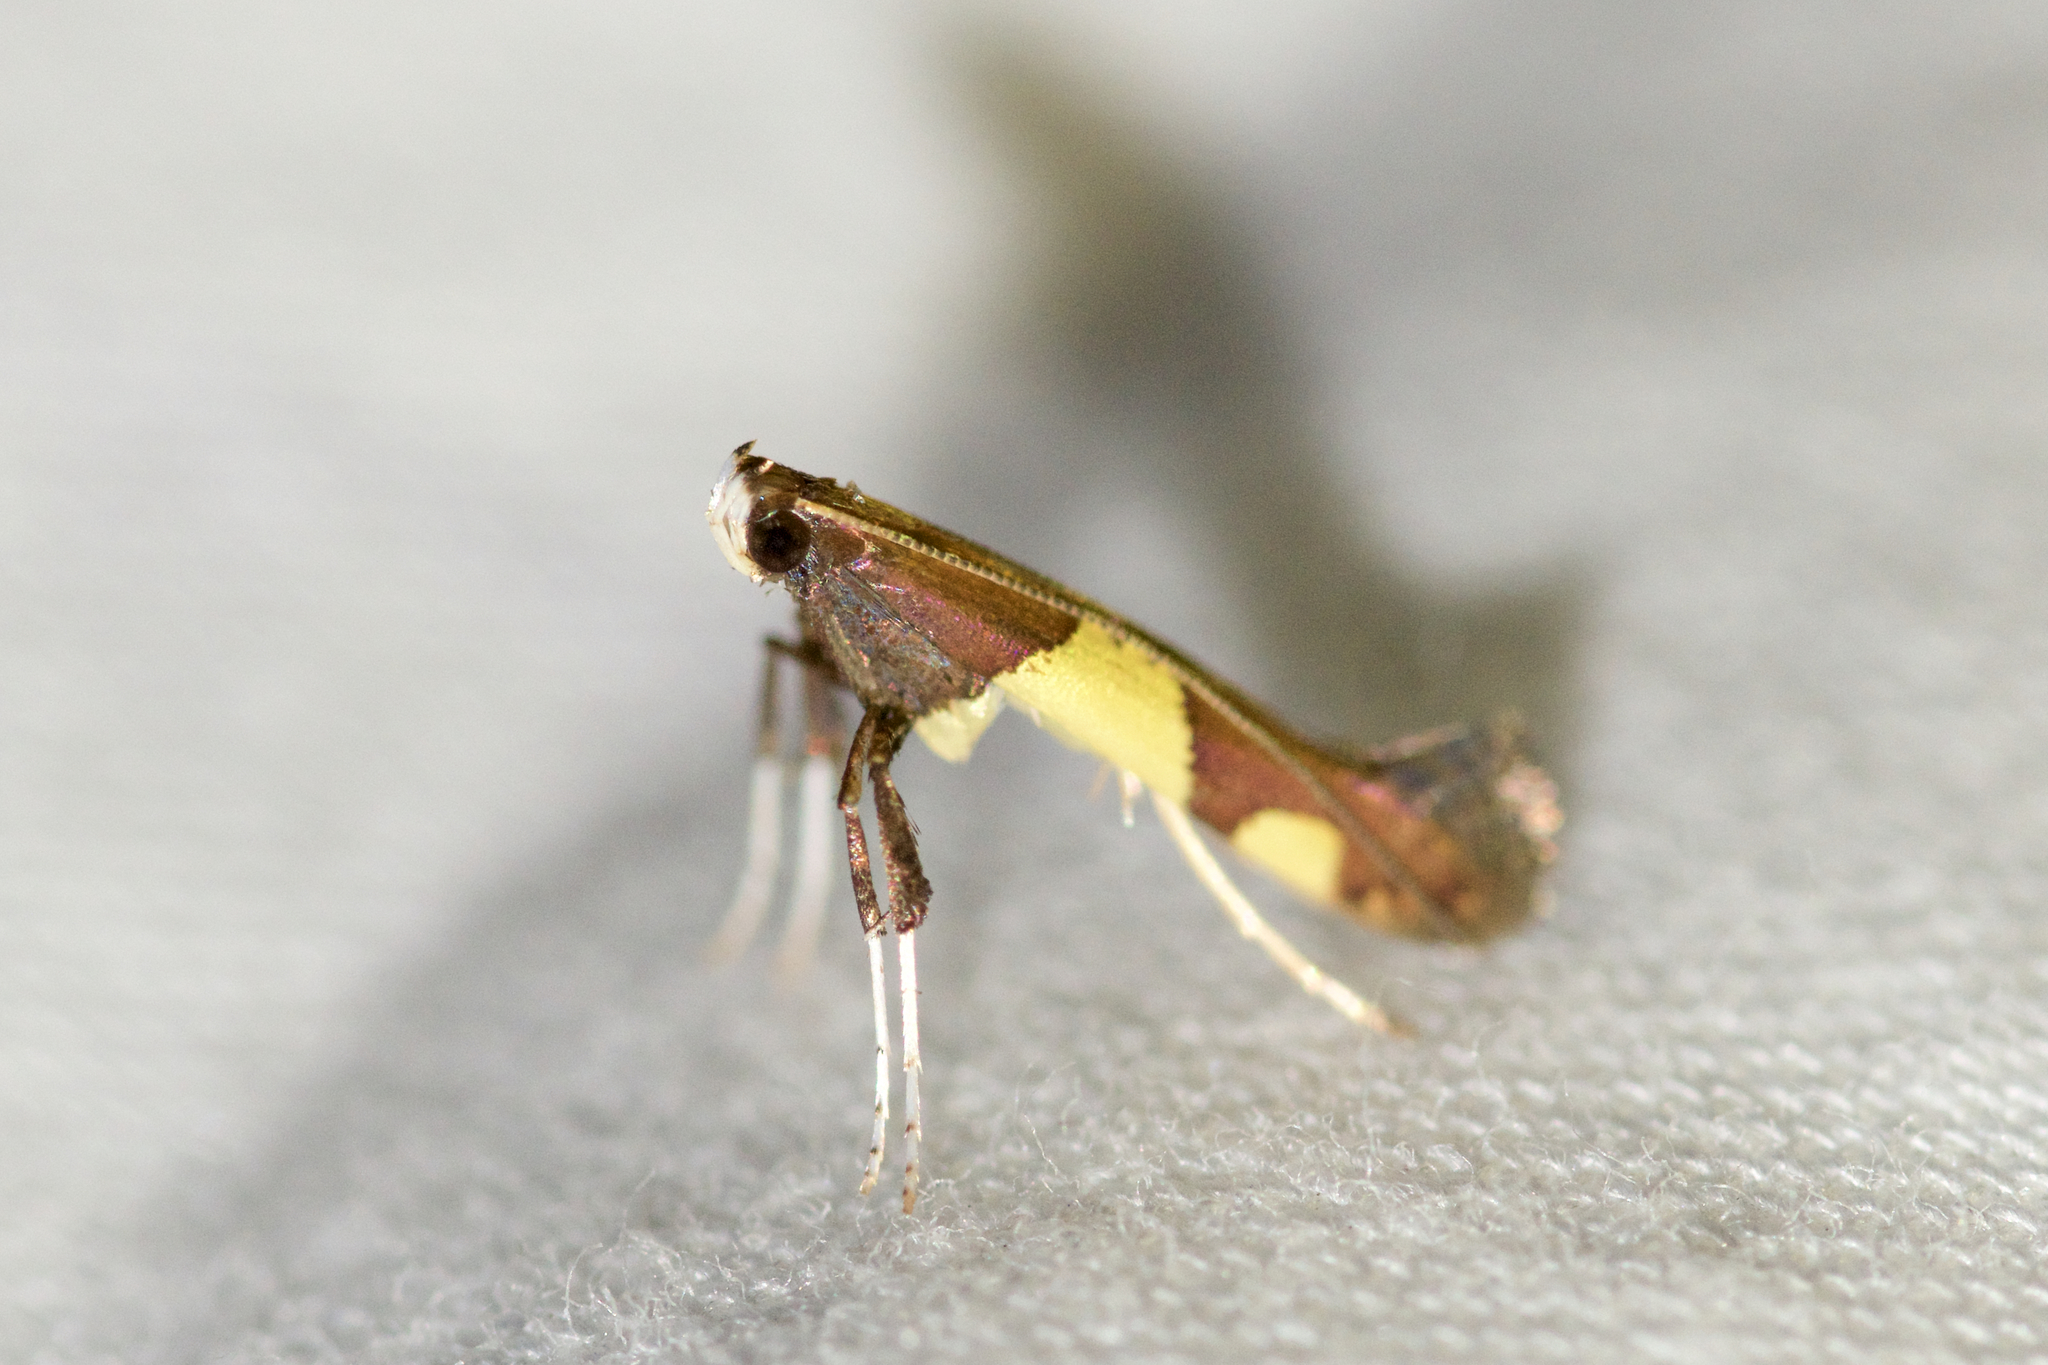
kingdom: Animalia
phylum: Arthropoda
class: Insecta
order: Lepidoptera
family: Gracillariidae
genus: Caloptilia
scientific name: Caloptilia bimaculatella
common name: Maple caloptilia moth
